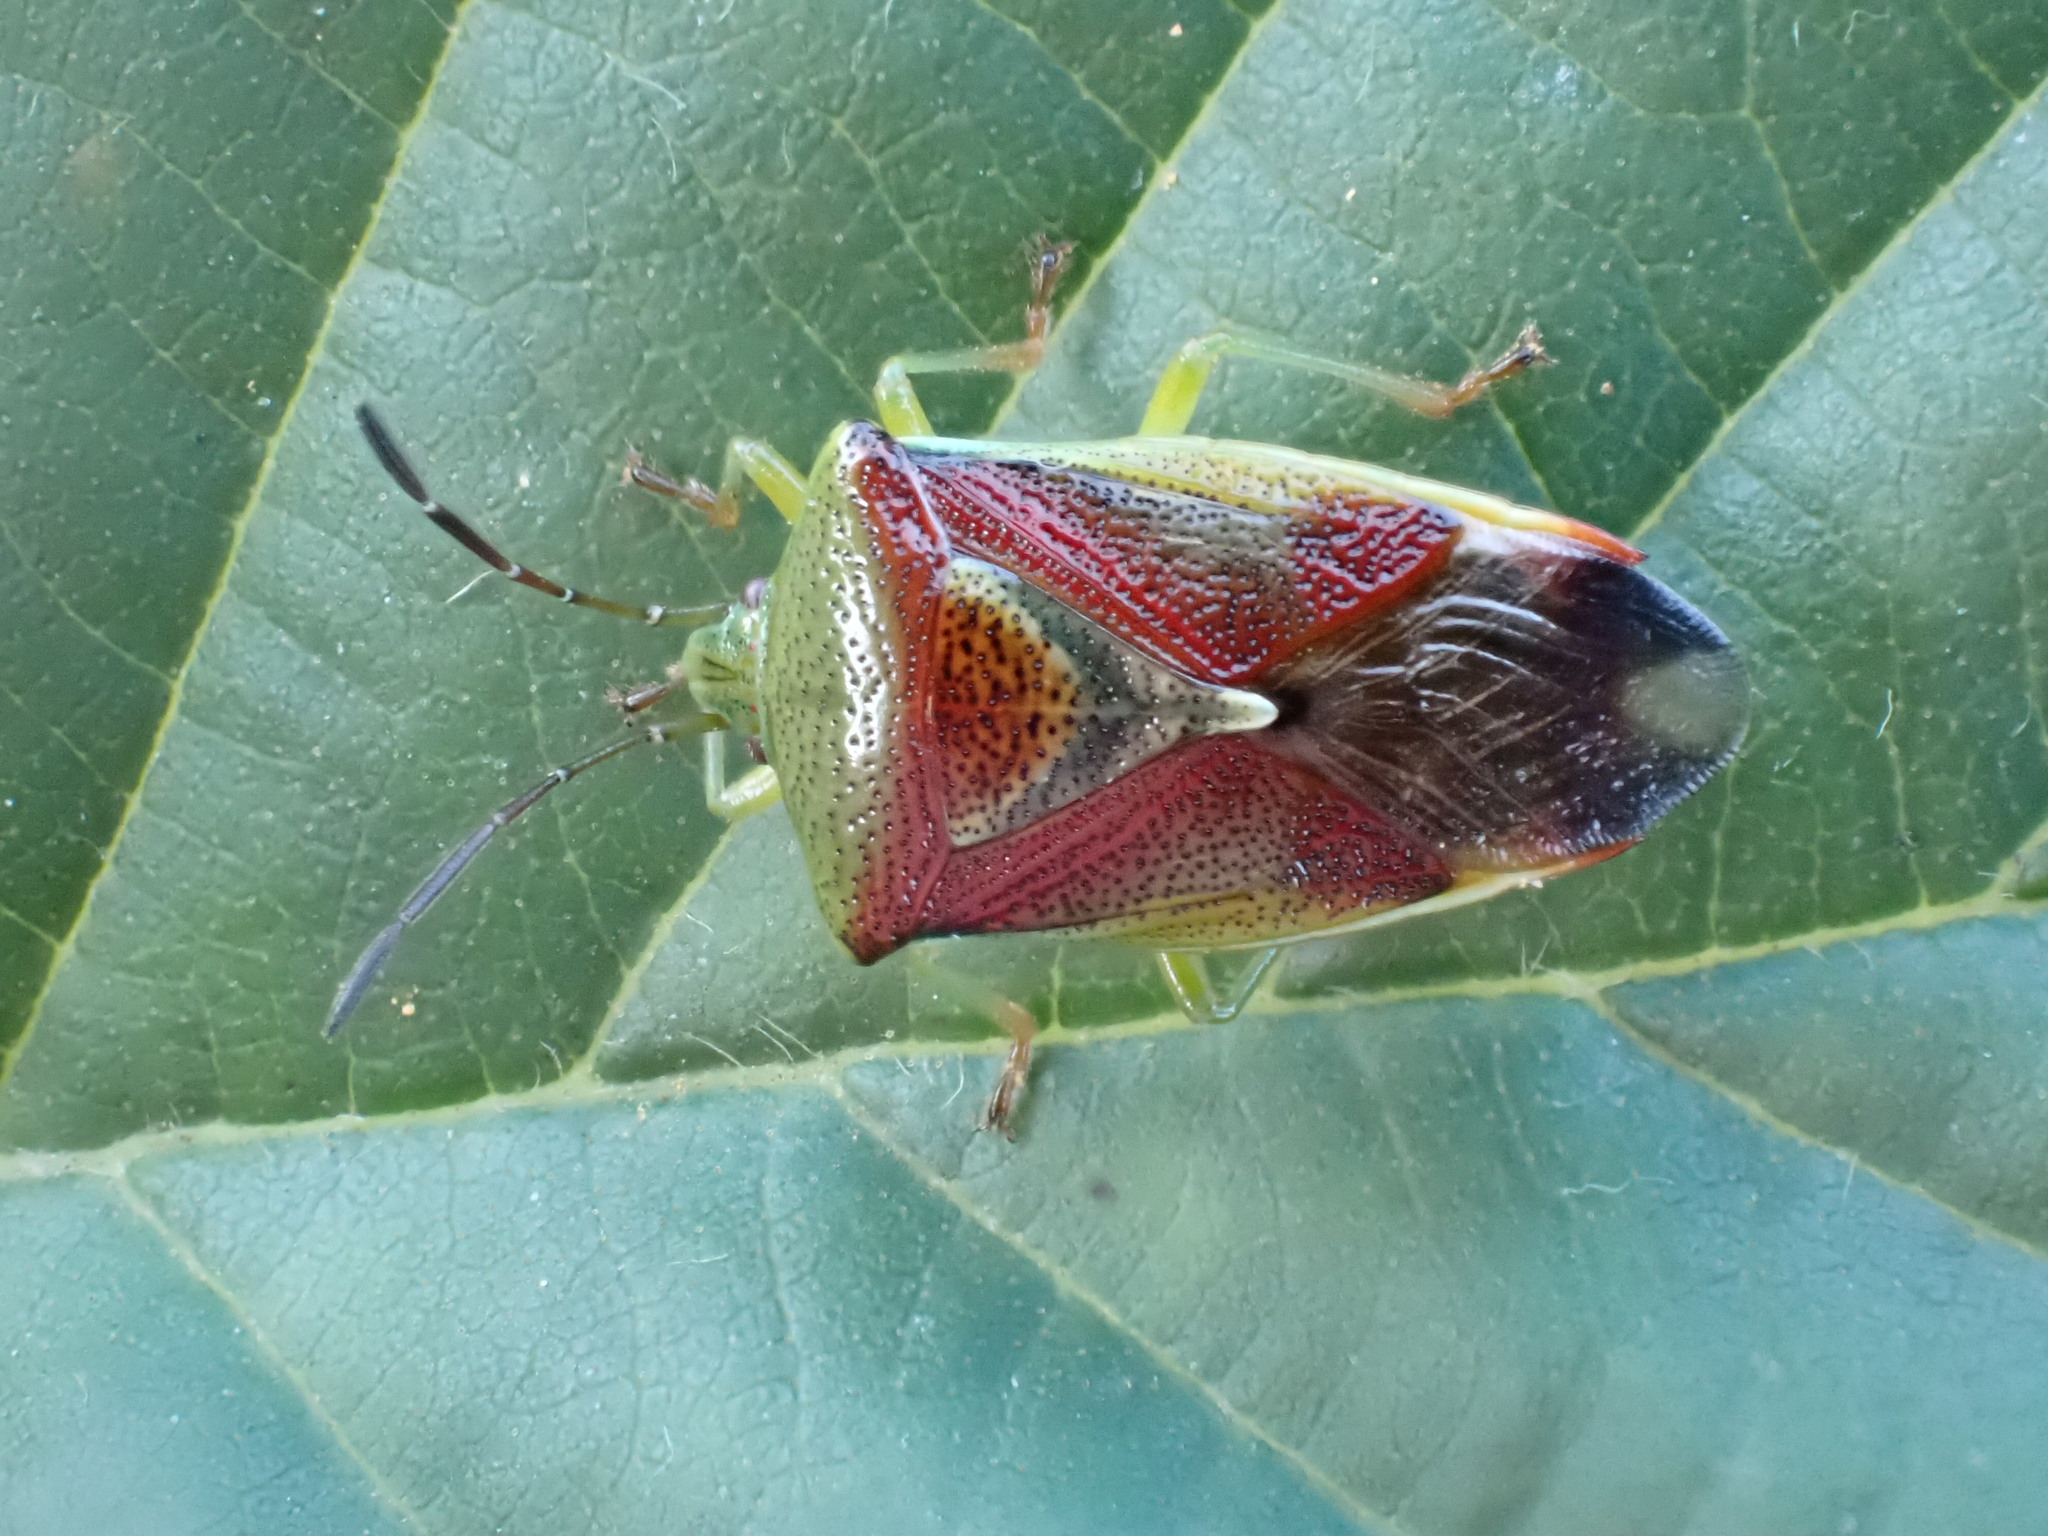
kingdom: Animalia
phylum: Arthropoda
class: Insecta
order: Hemiptera
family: Acanthosomatidae
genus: Elasmostethus
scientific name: Elasmostethus
